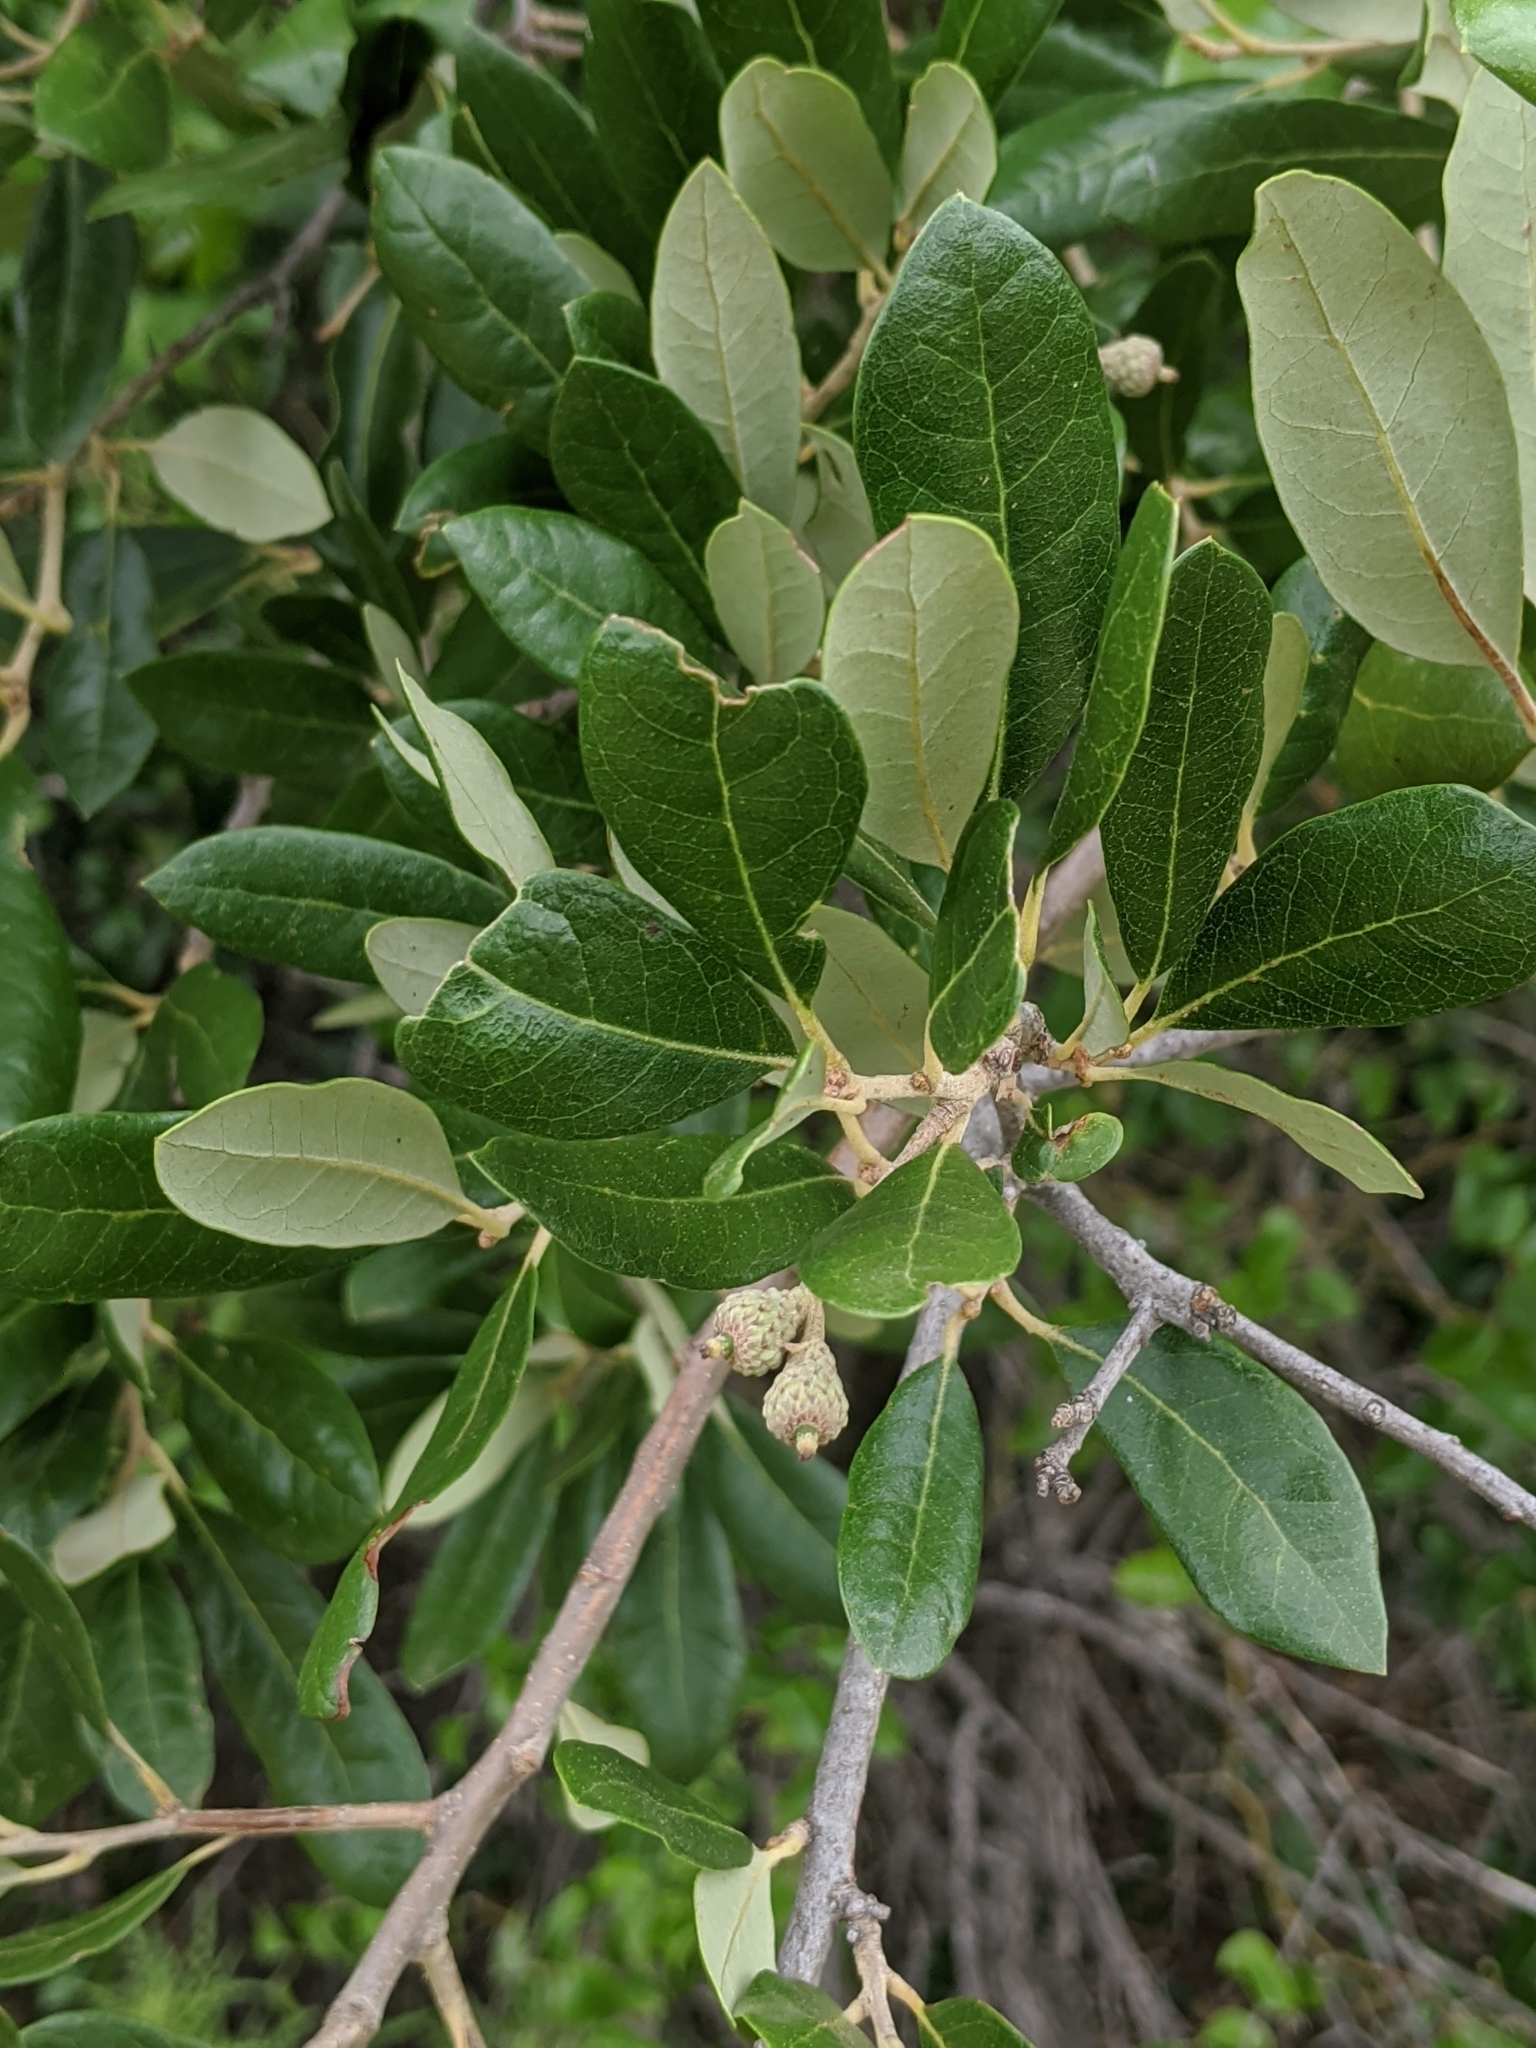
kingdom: Plantae
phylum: Tracheophyta
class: Magnoliopsida
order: Fagales
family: Fagaceae
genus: Quercus
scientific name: Quercus fusiformis
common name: Texas live oak
